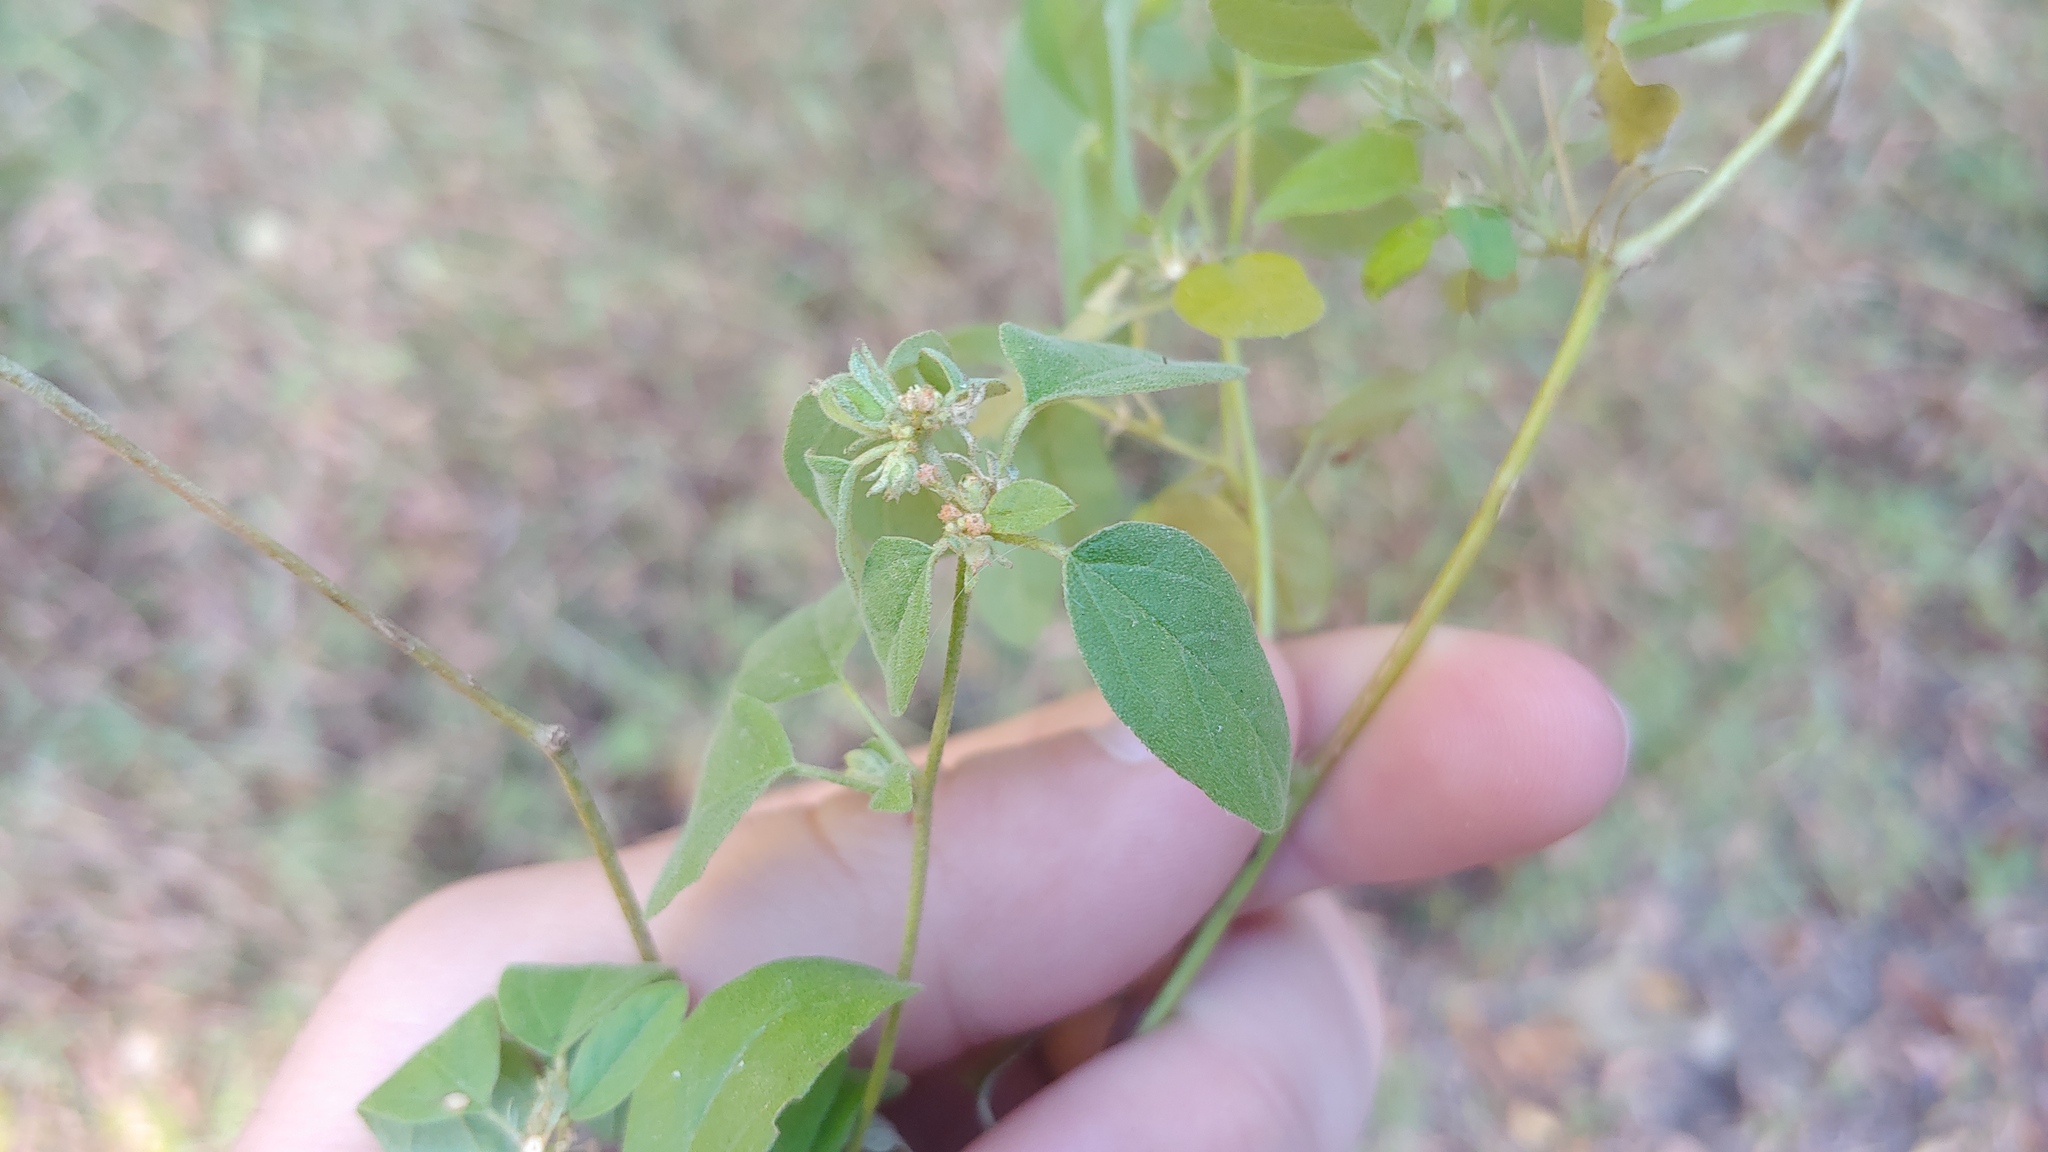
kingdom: Plantae
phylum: Tracheophyta
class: Magnoliopsida
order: Malpighiales
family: Euphorbiaceae
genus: Croton
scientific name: Croton monanthogynus
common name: One-seed croton
